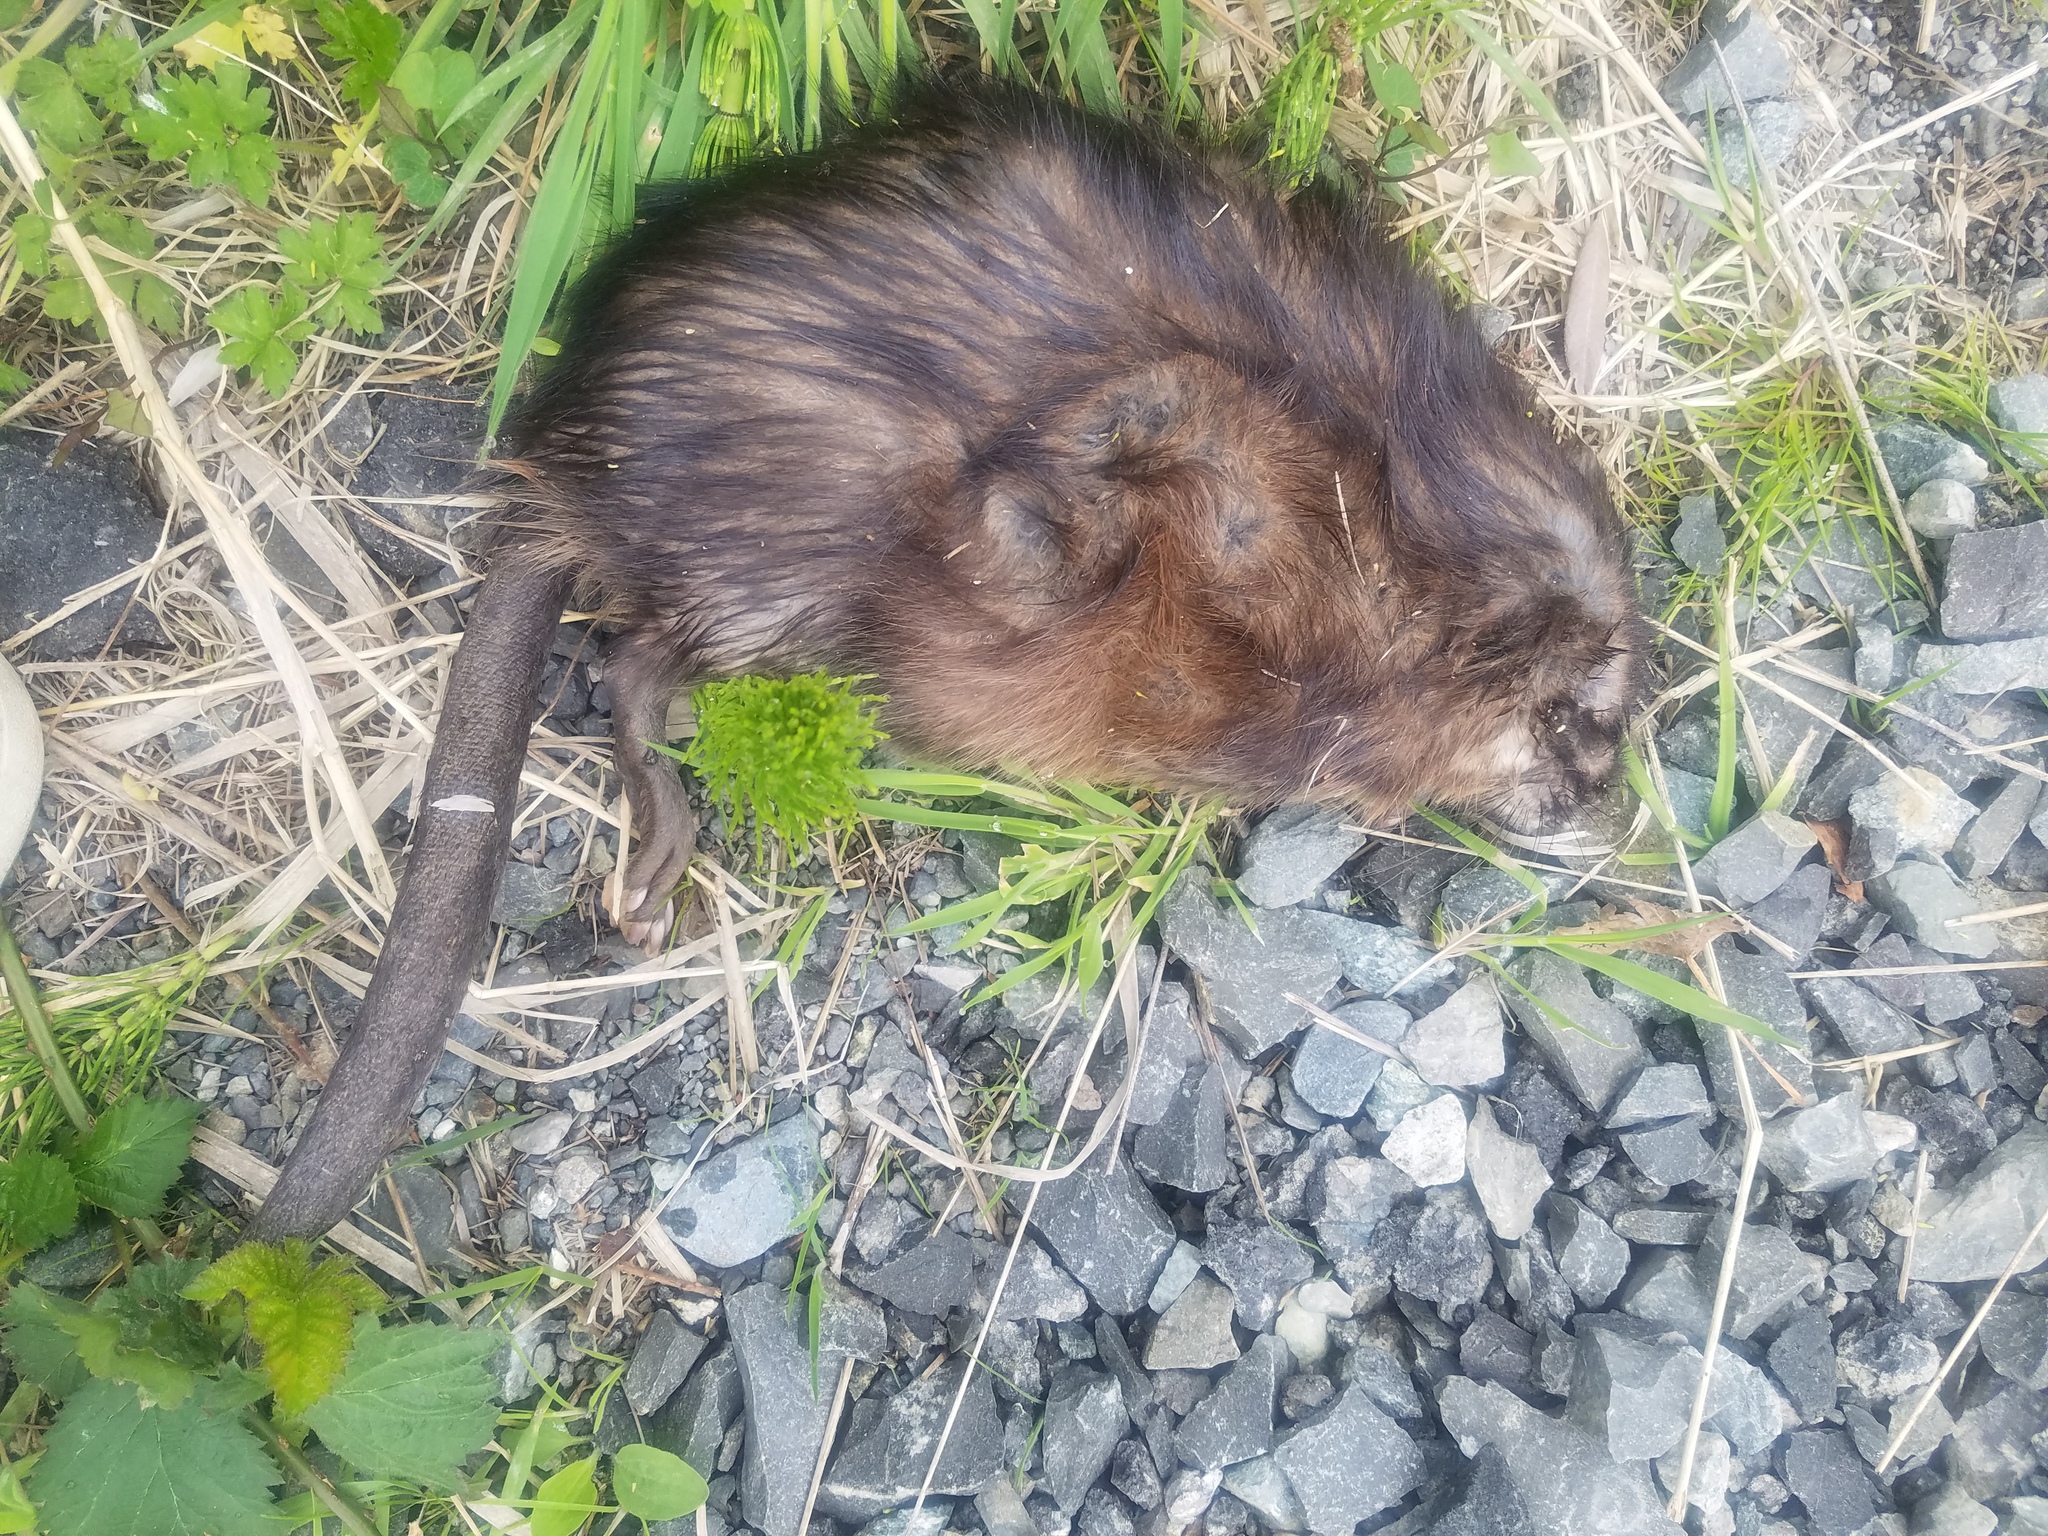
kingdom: Animalia
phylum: Chordata
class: Mammalia
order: Rodentia
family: Cricetidae
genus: Ondatra
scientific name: Ondatra zibethicus
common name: Muskrat
